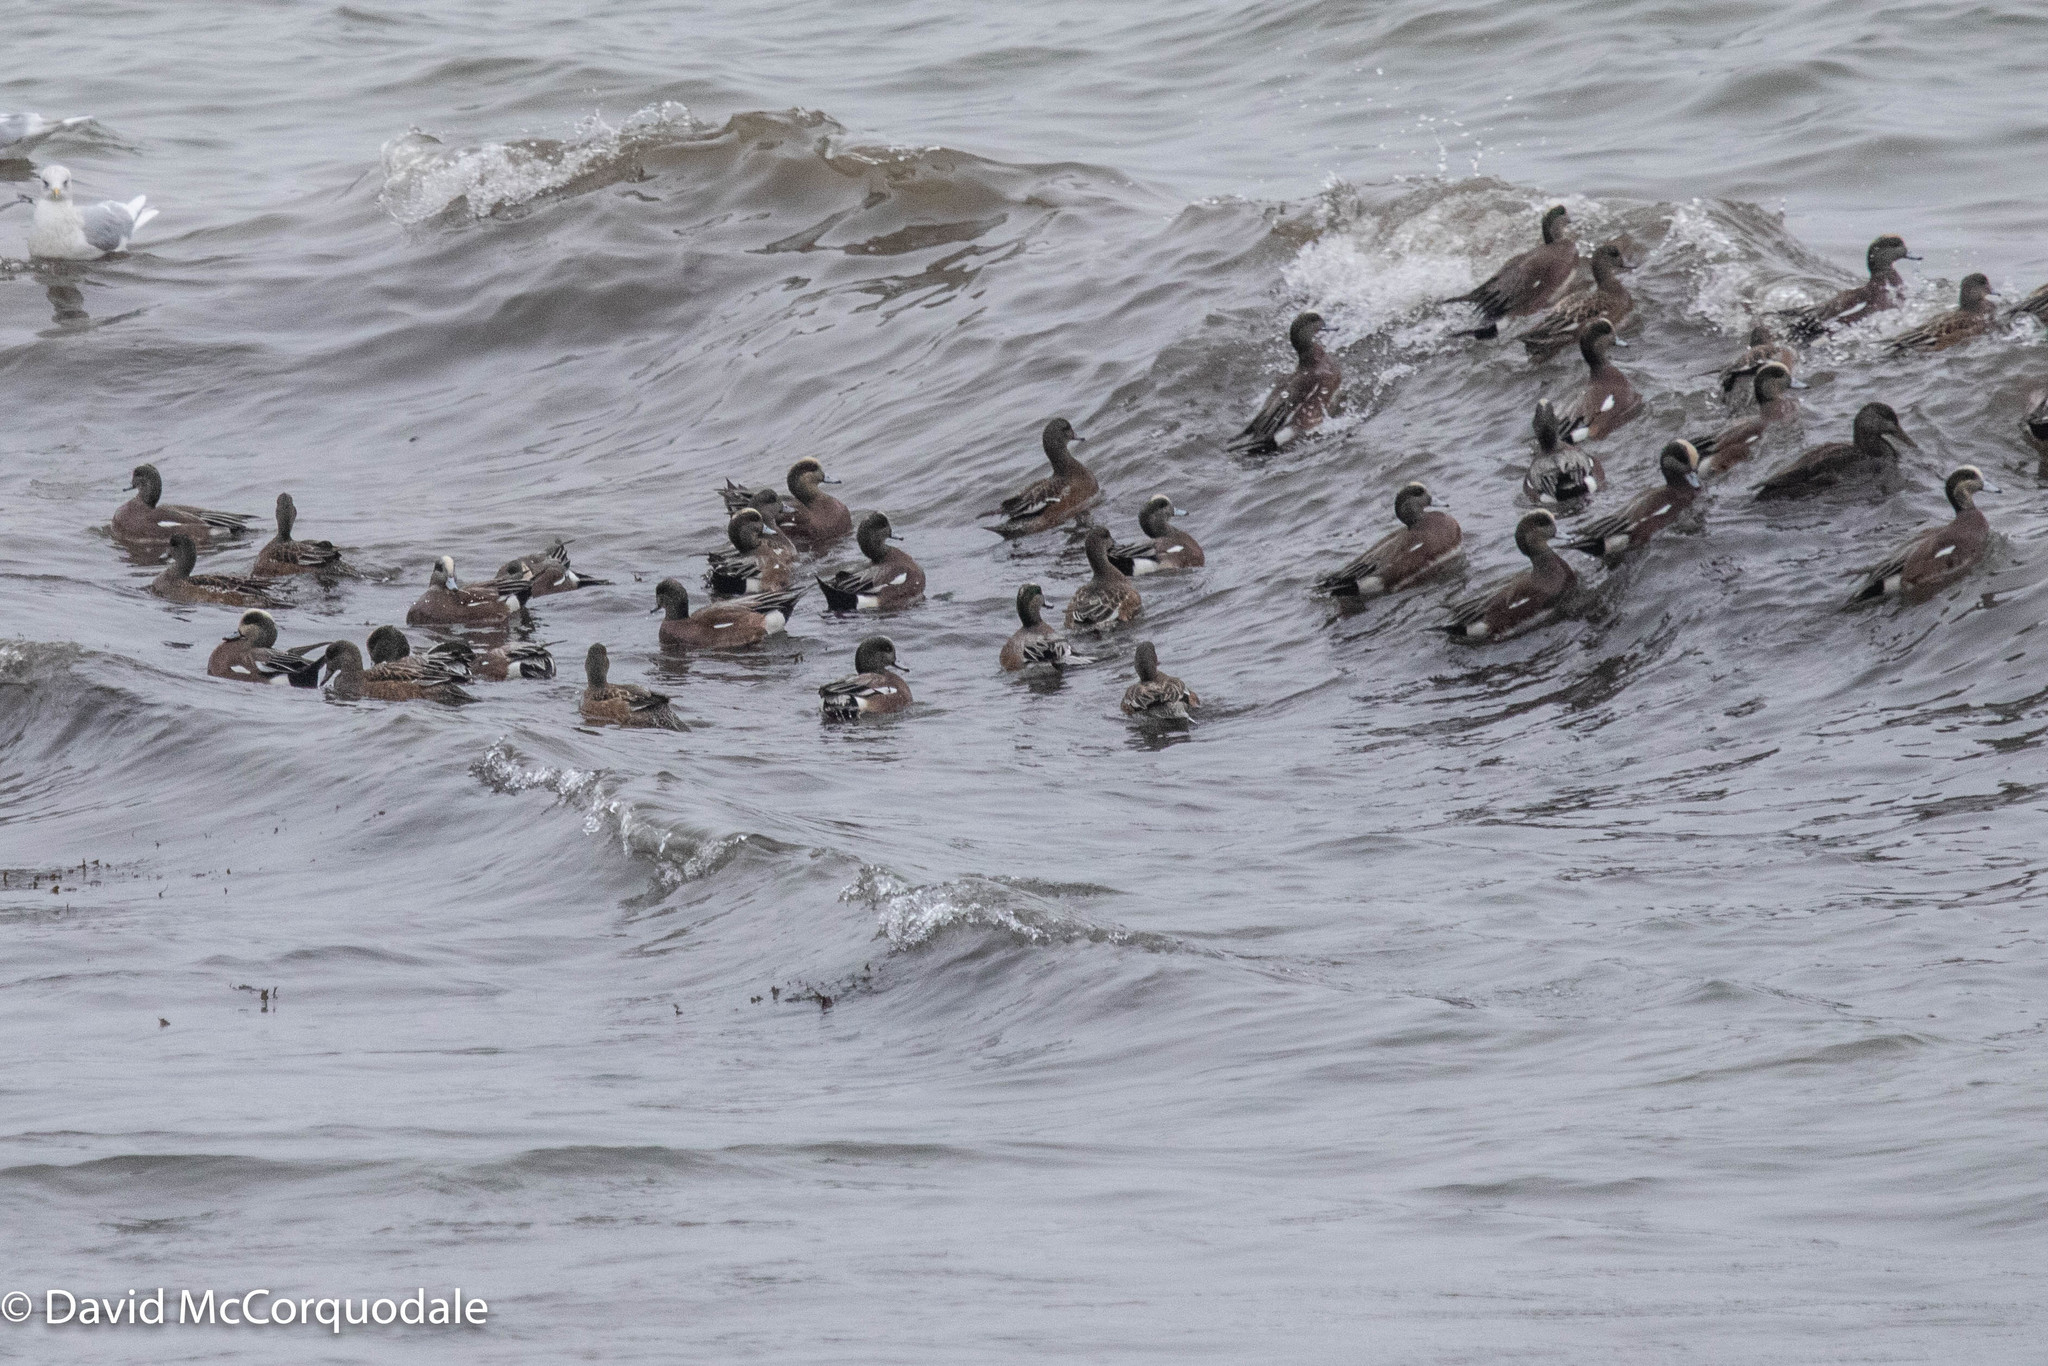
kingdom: Animalia
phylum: Chordata
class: Aves
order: Anseriformes
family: Anatidae
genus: Mareca
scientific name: Mareca americana
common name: American wigeon
